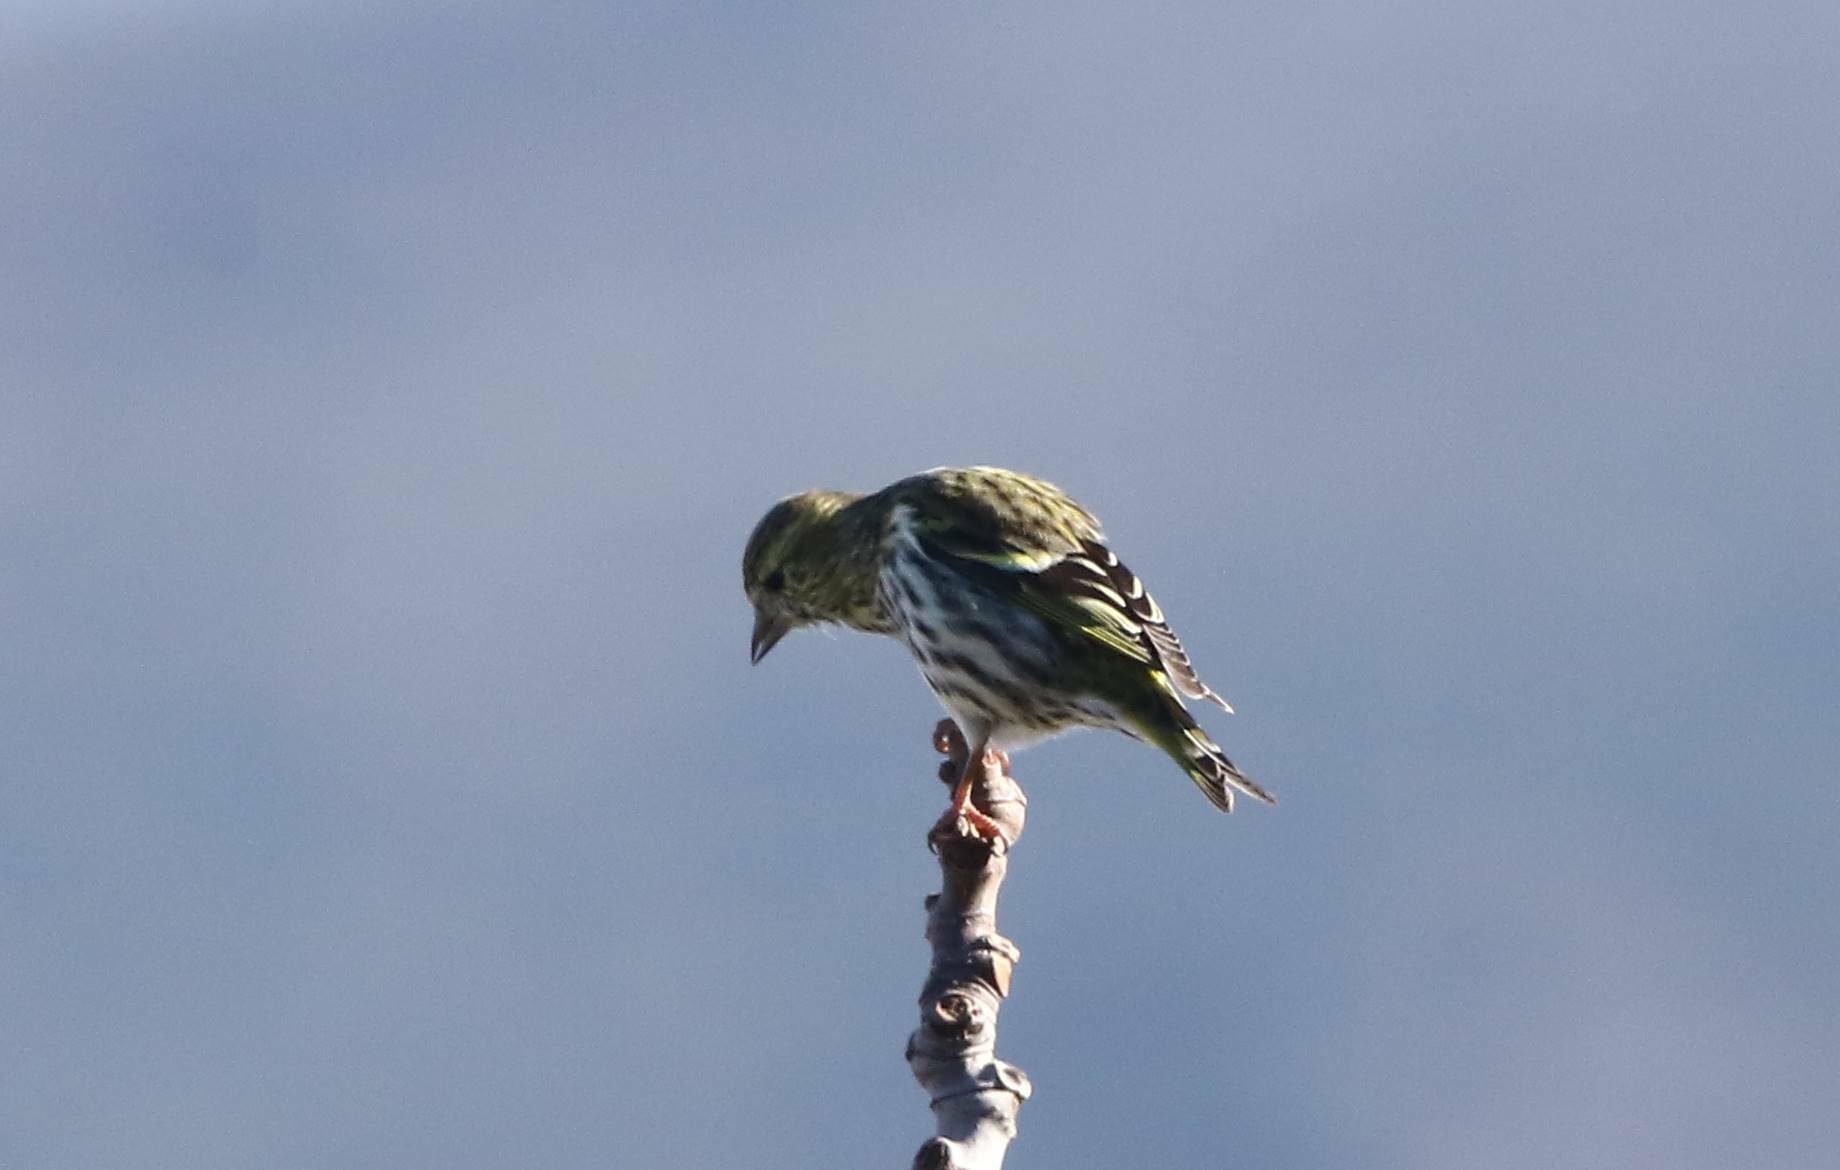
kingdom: Animalia
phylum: Chordata
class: Aves
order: Passeriformes
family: Fringillidae
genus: Spinus
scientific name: Spinus spinus
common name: Eurasian siskin
